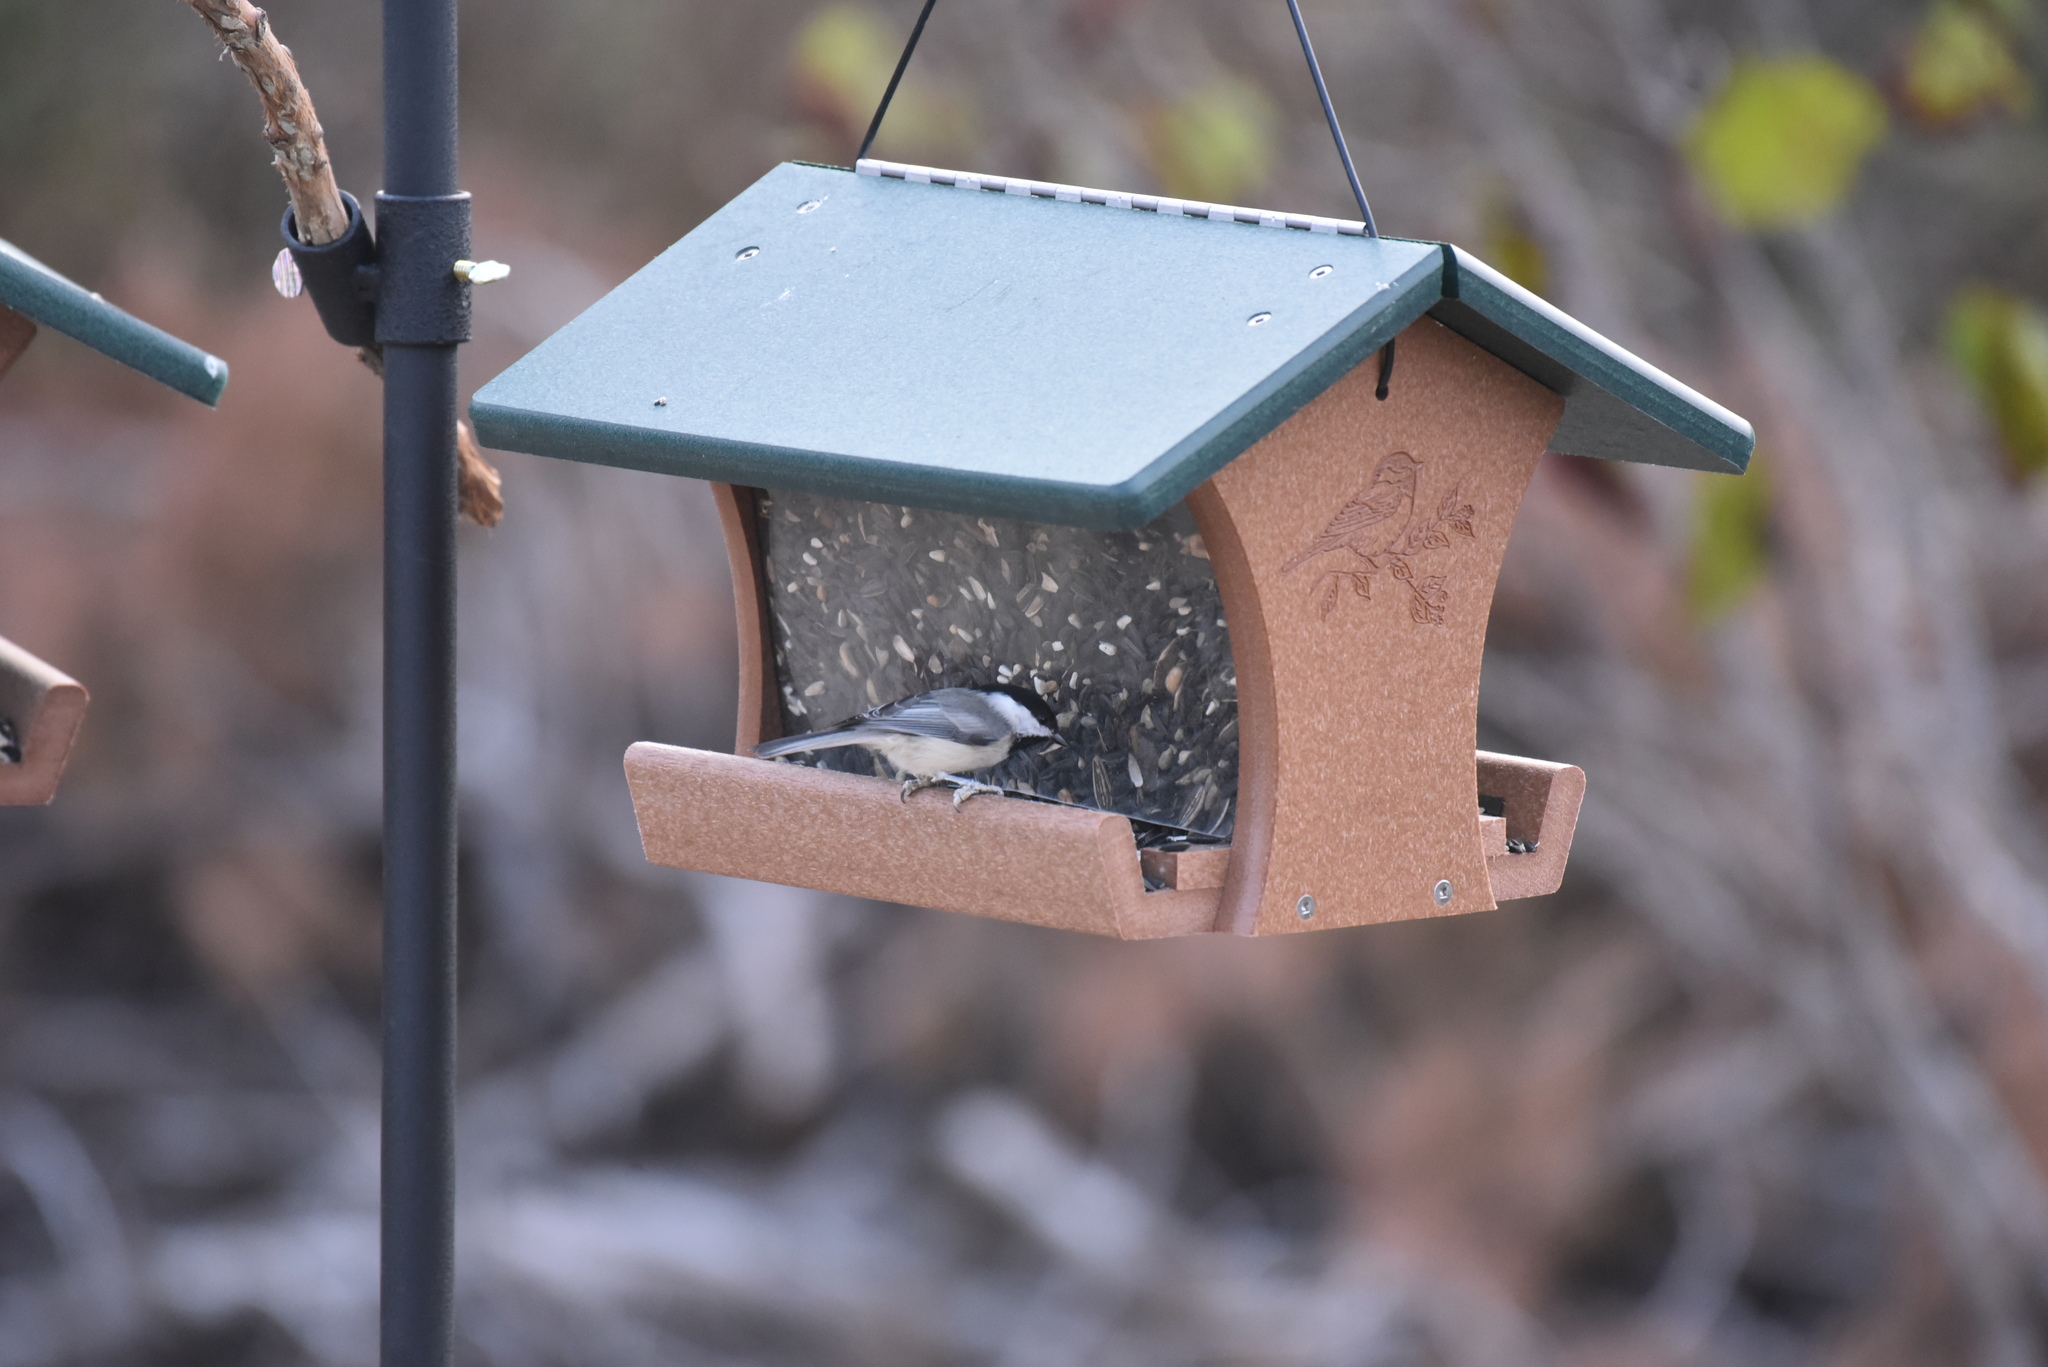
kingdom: Animalia
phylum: Chordata
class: Aves
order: Passeriformes
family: Paridae
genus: Poecile
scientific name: Poecile carolinensis
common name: Carolina chickadee
